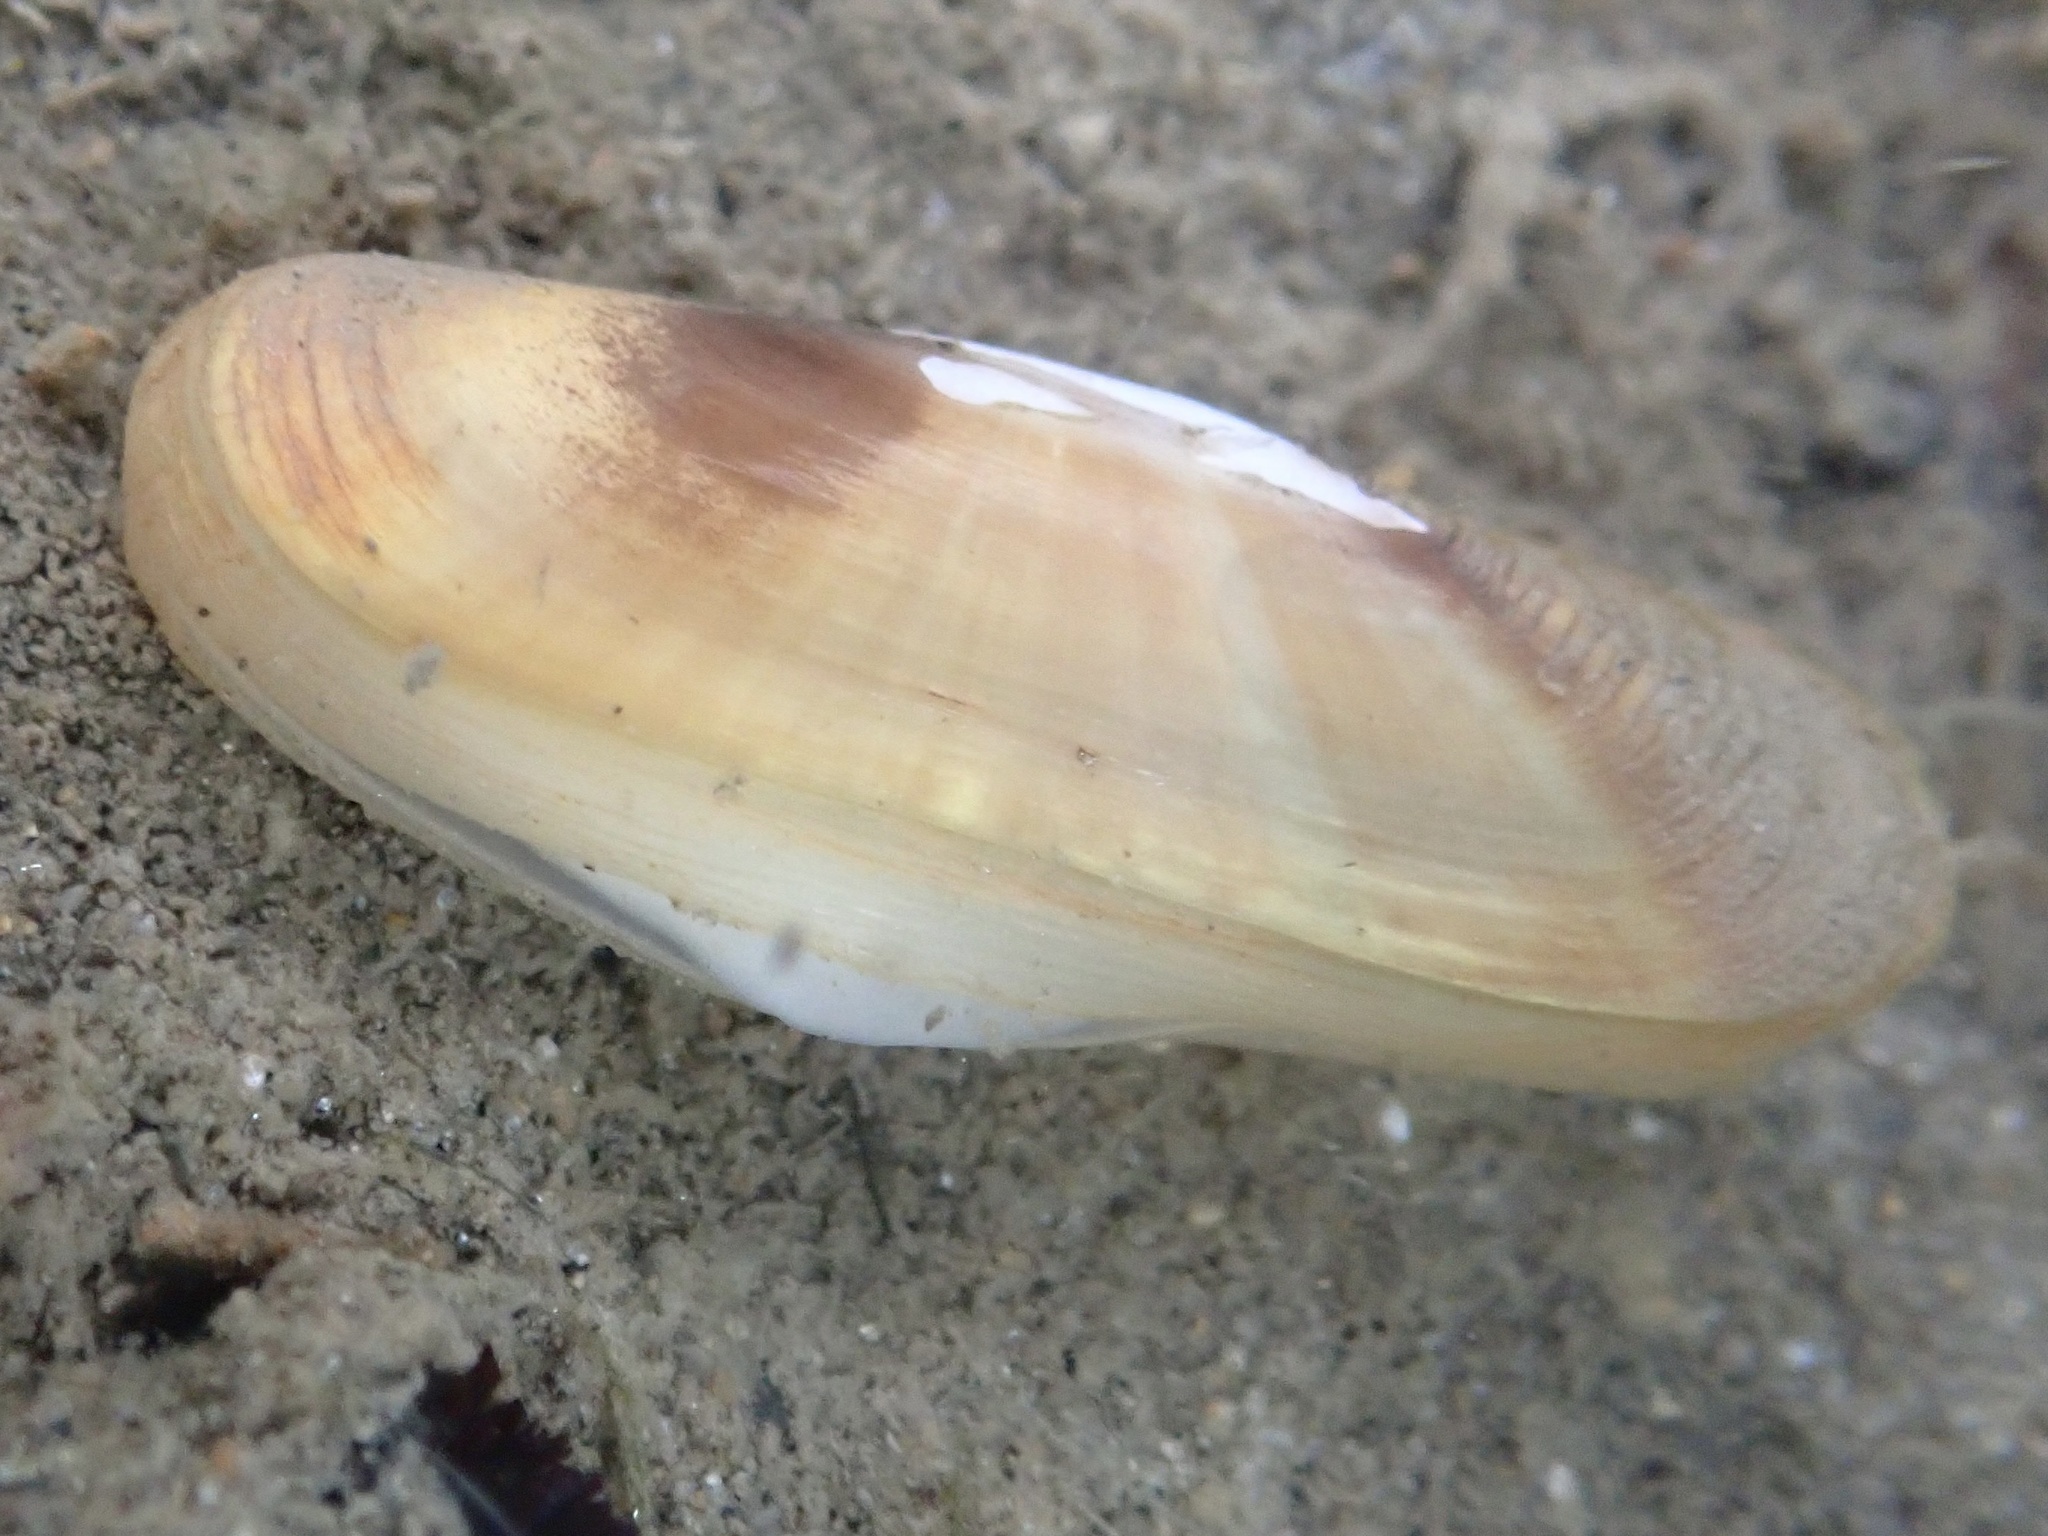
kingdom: Animalia
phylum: Mollusca
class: Bivalvia
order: Cardiida
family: Solecurtidae
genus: Tagelus
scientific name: Tagelus subteres
